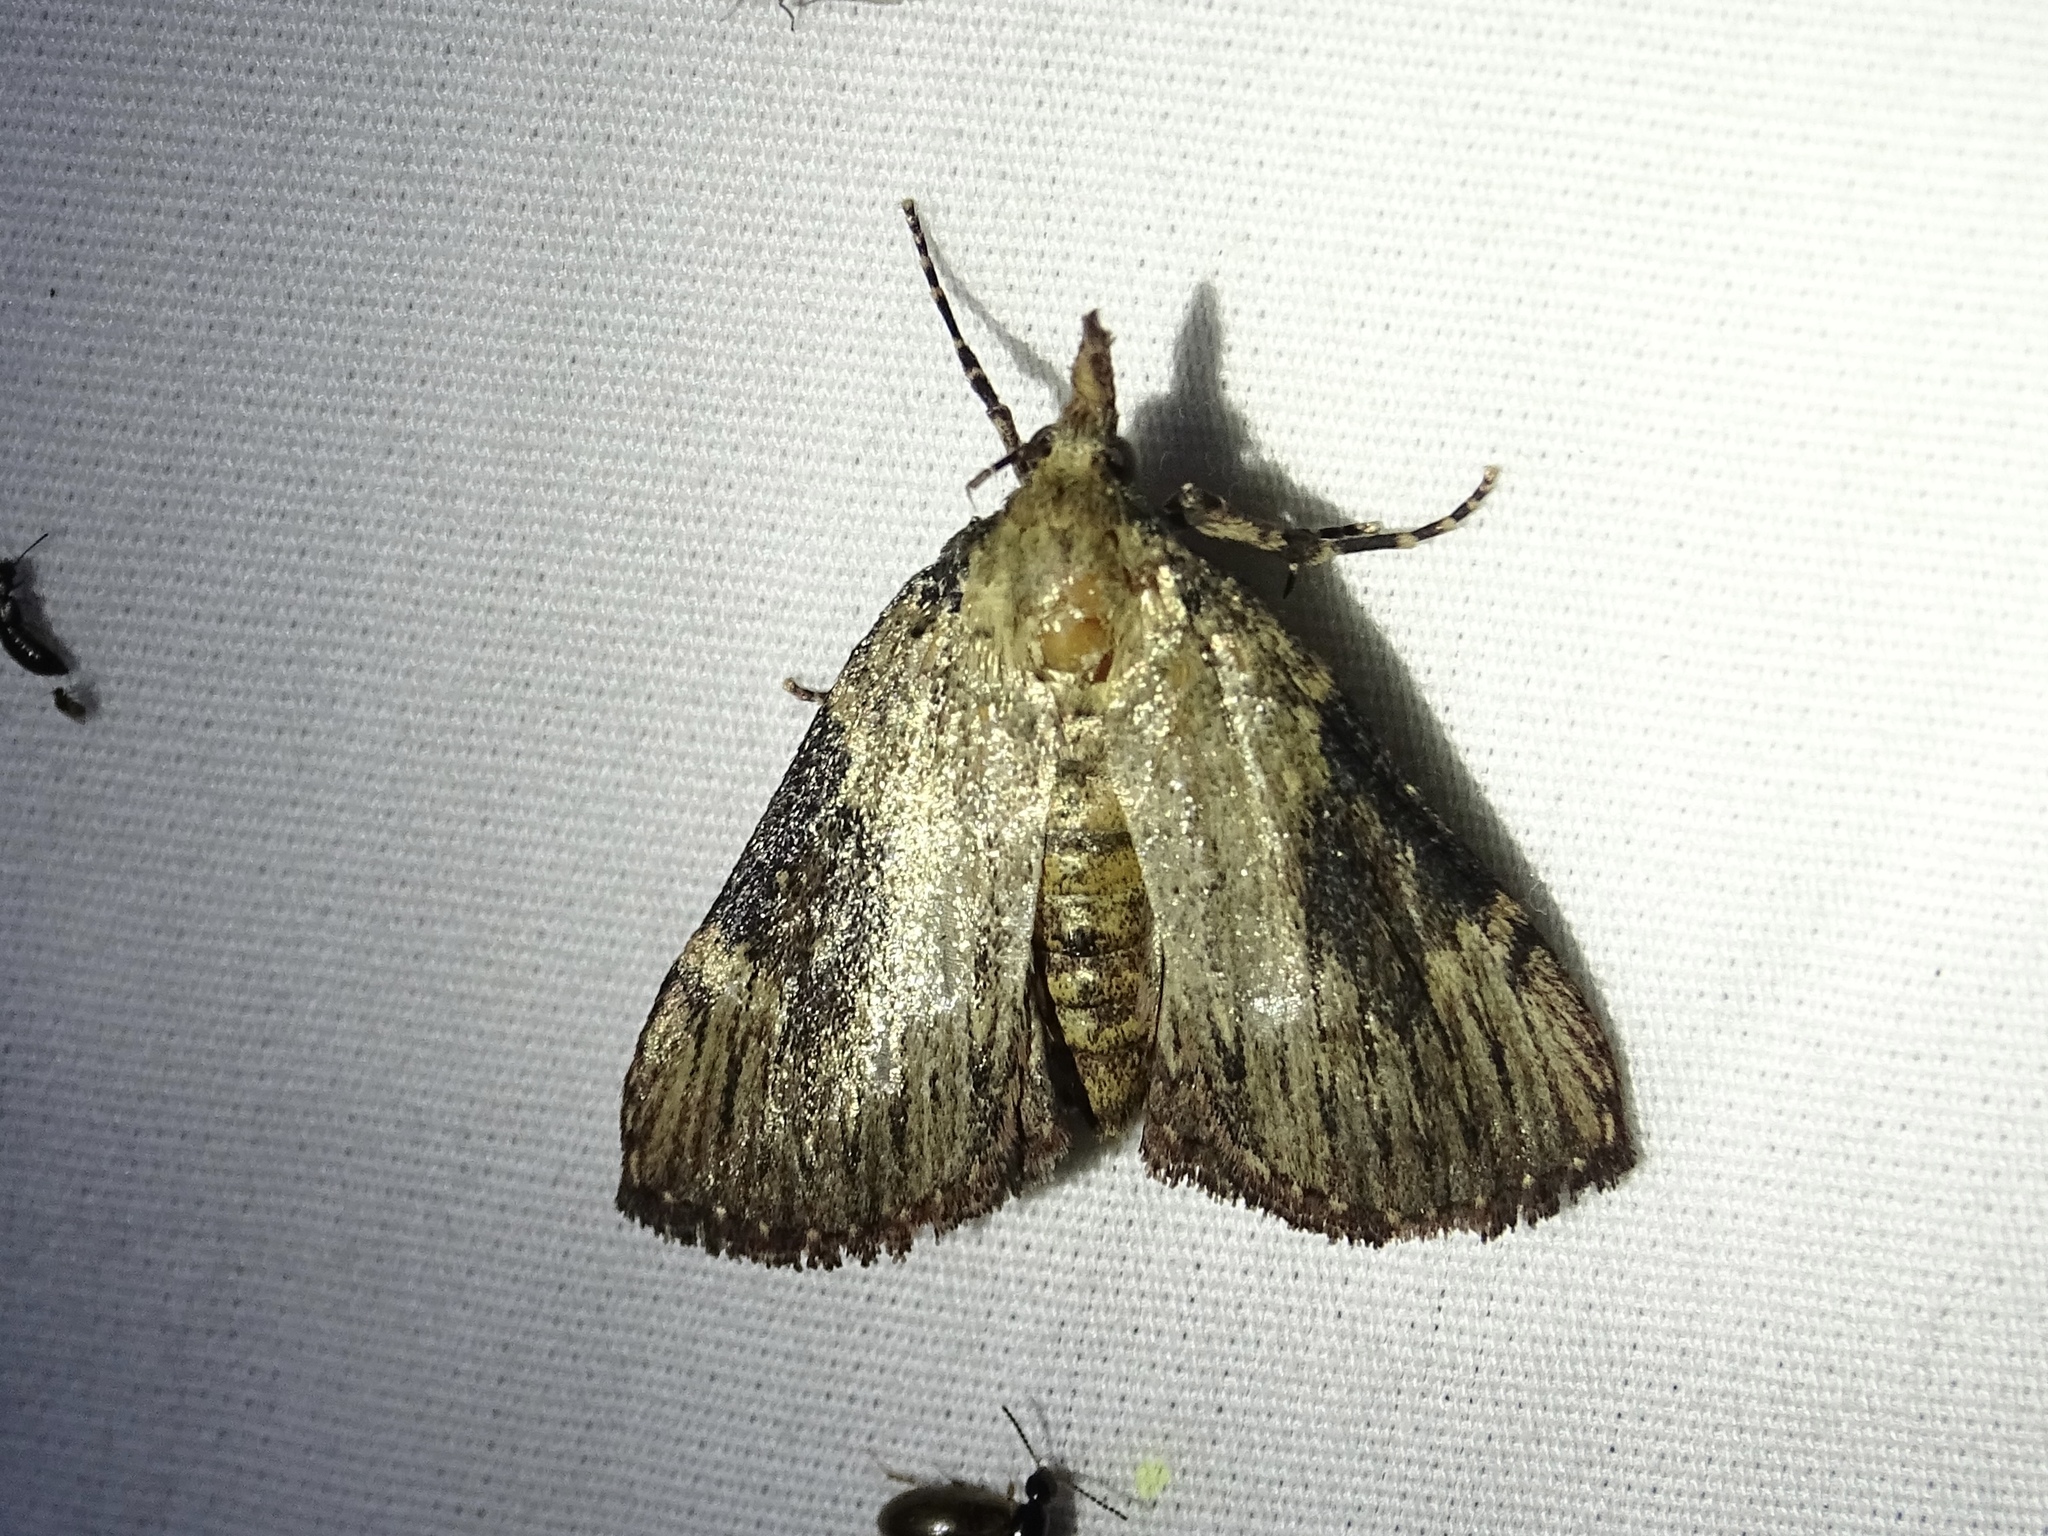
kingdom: Animalia
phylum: Arthropoda
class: Insecta
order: Lepidoptera
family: Pyralidae
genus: Omphalocera
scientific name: Omphalocera cariosa
